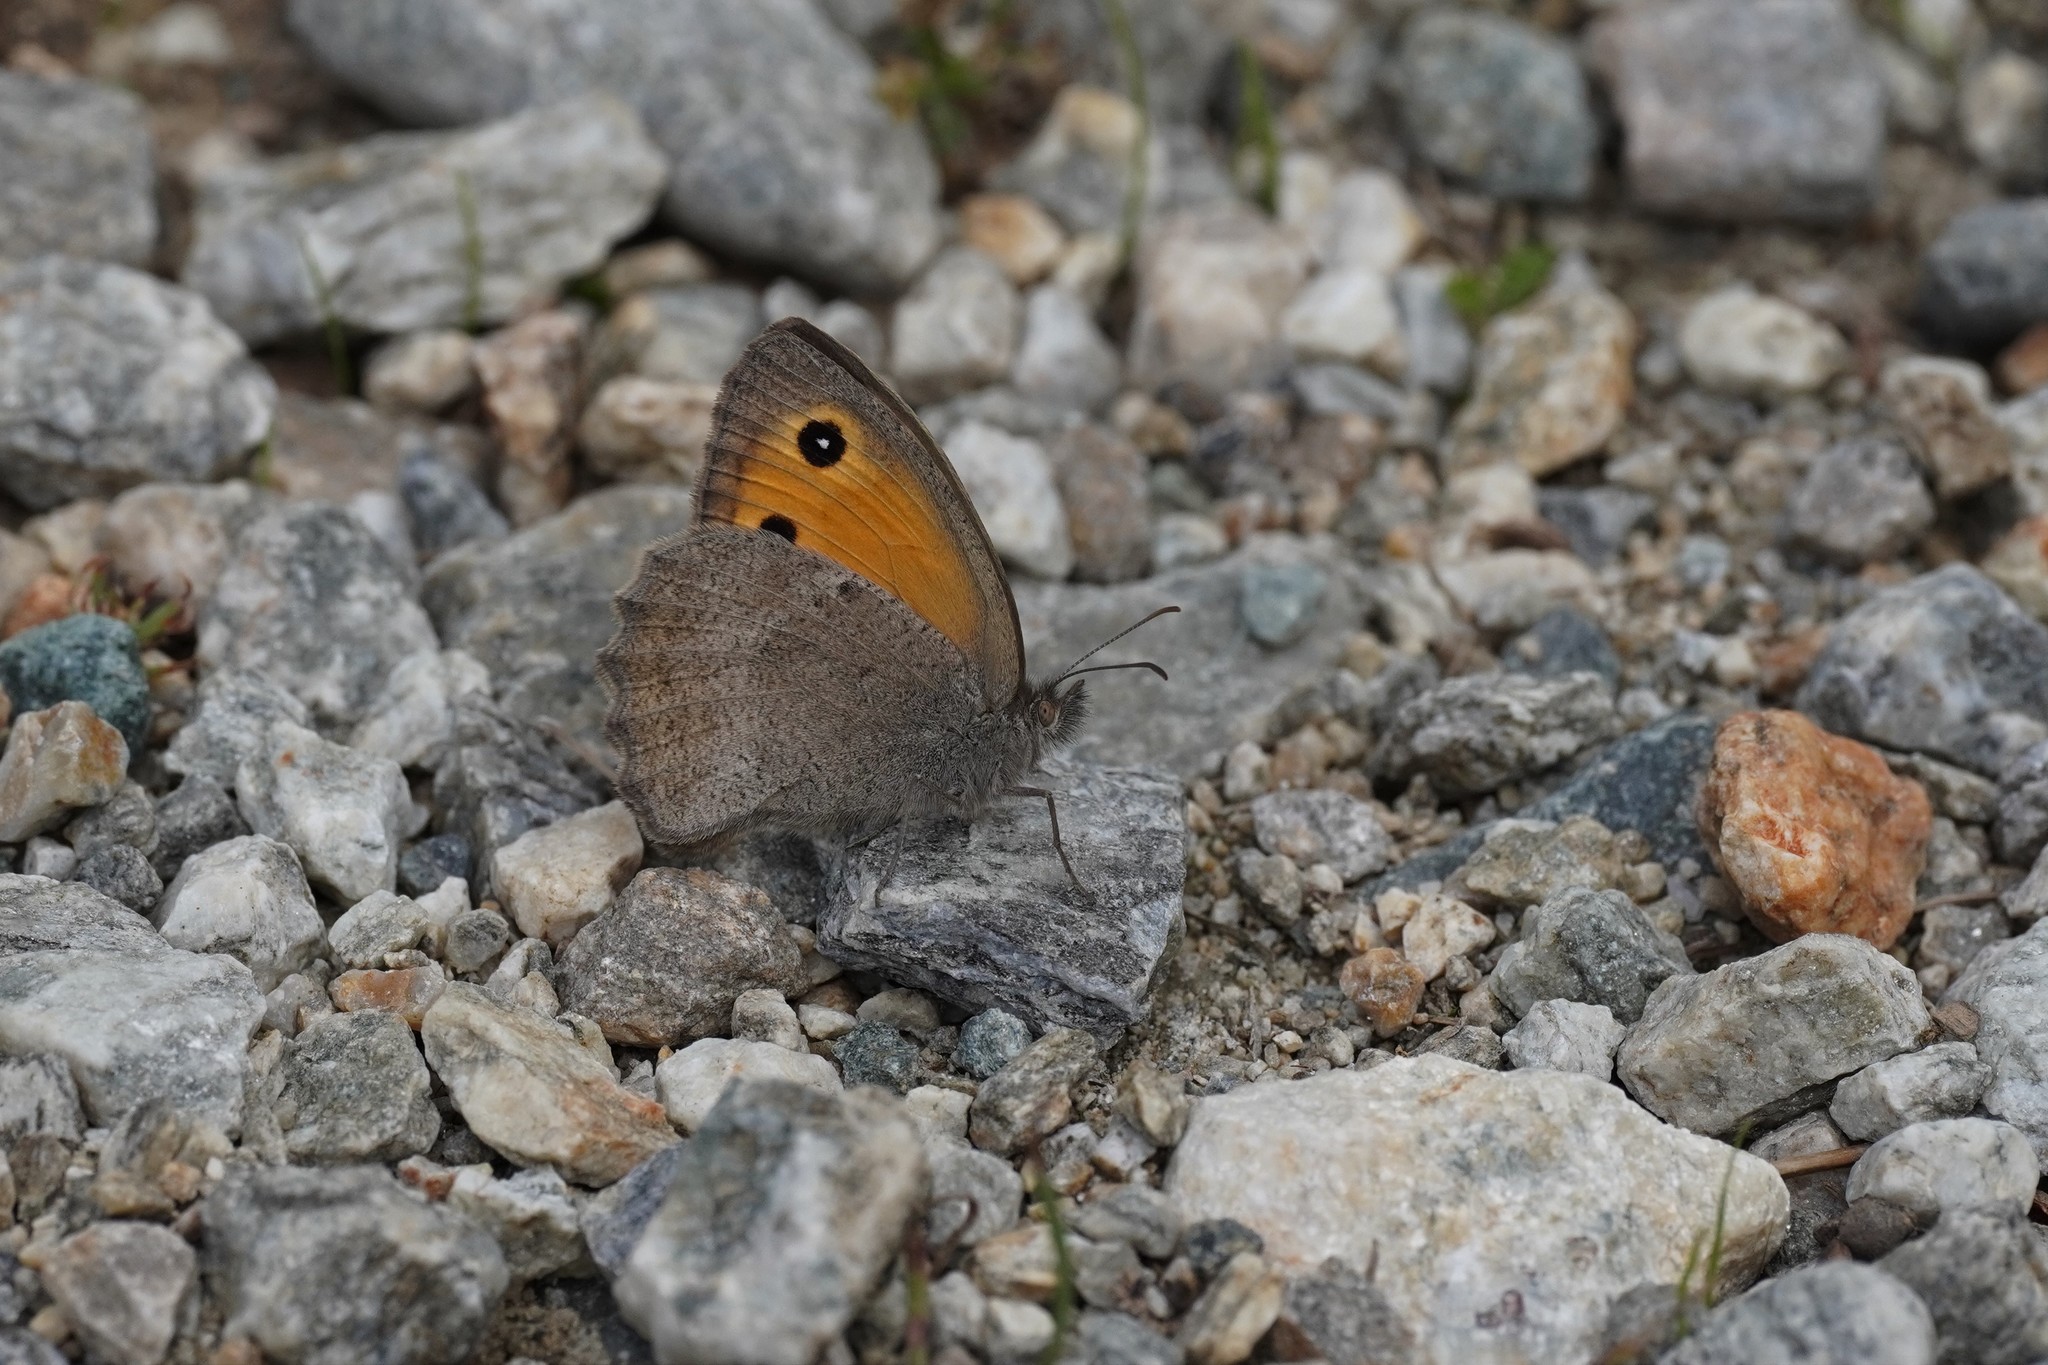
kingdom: Animalia
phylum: Arthropoda
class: Insecta
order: Lepidoptera
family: Nymphalidae
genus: Hyponephele
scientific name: Hyponephele lycaon
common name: Dusky meadow brown
